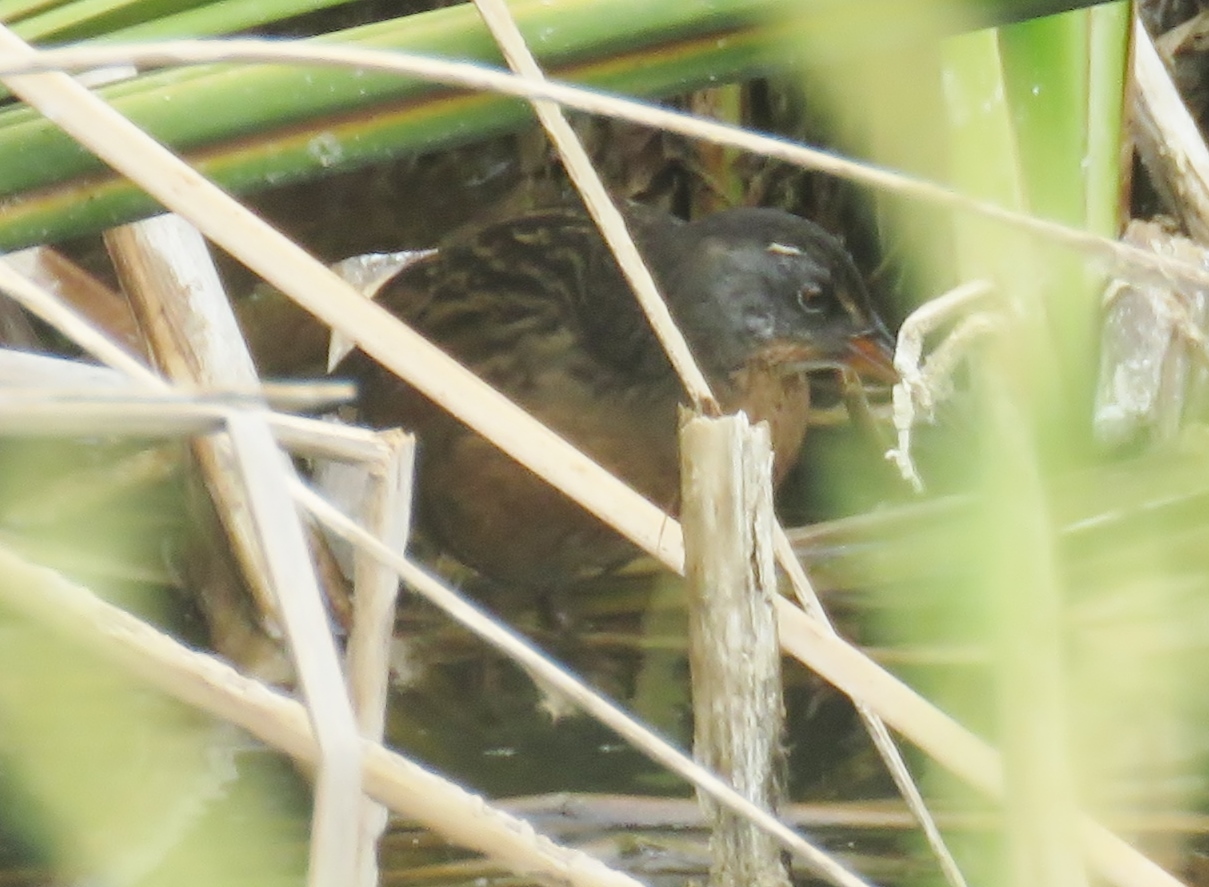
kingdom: Animalia
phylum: Chordata
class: Aves
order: Gruiformes
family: Rallidae
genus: Rallus
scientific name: Rallus limicola
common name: Virginia rail
